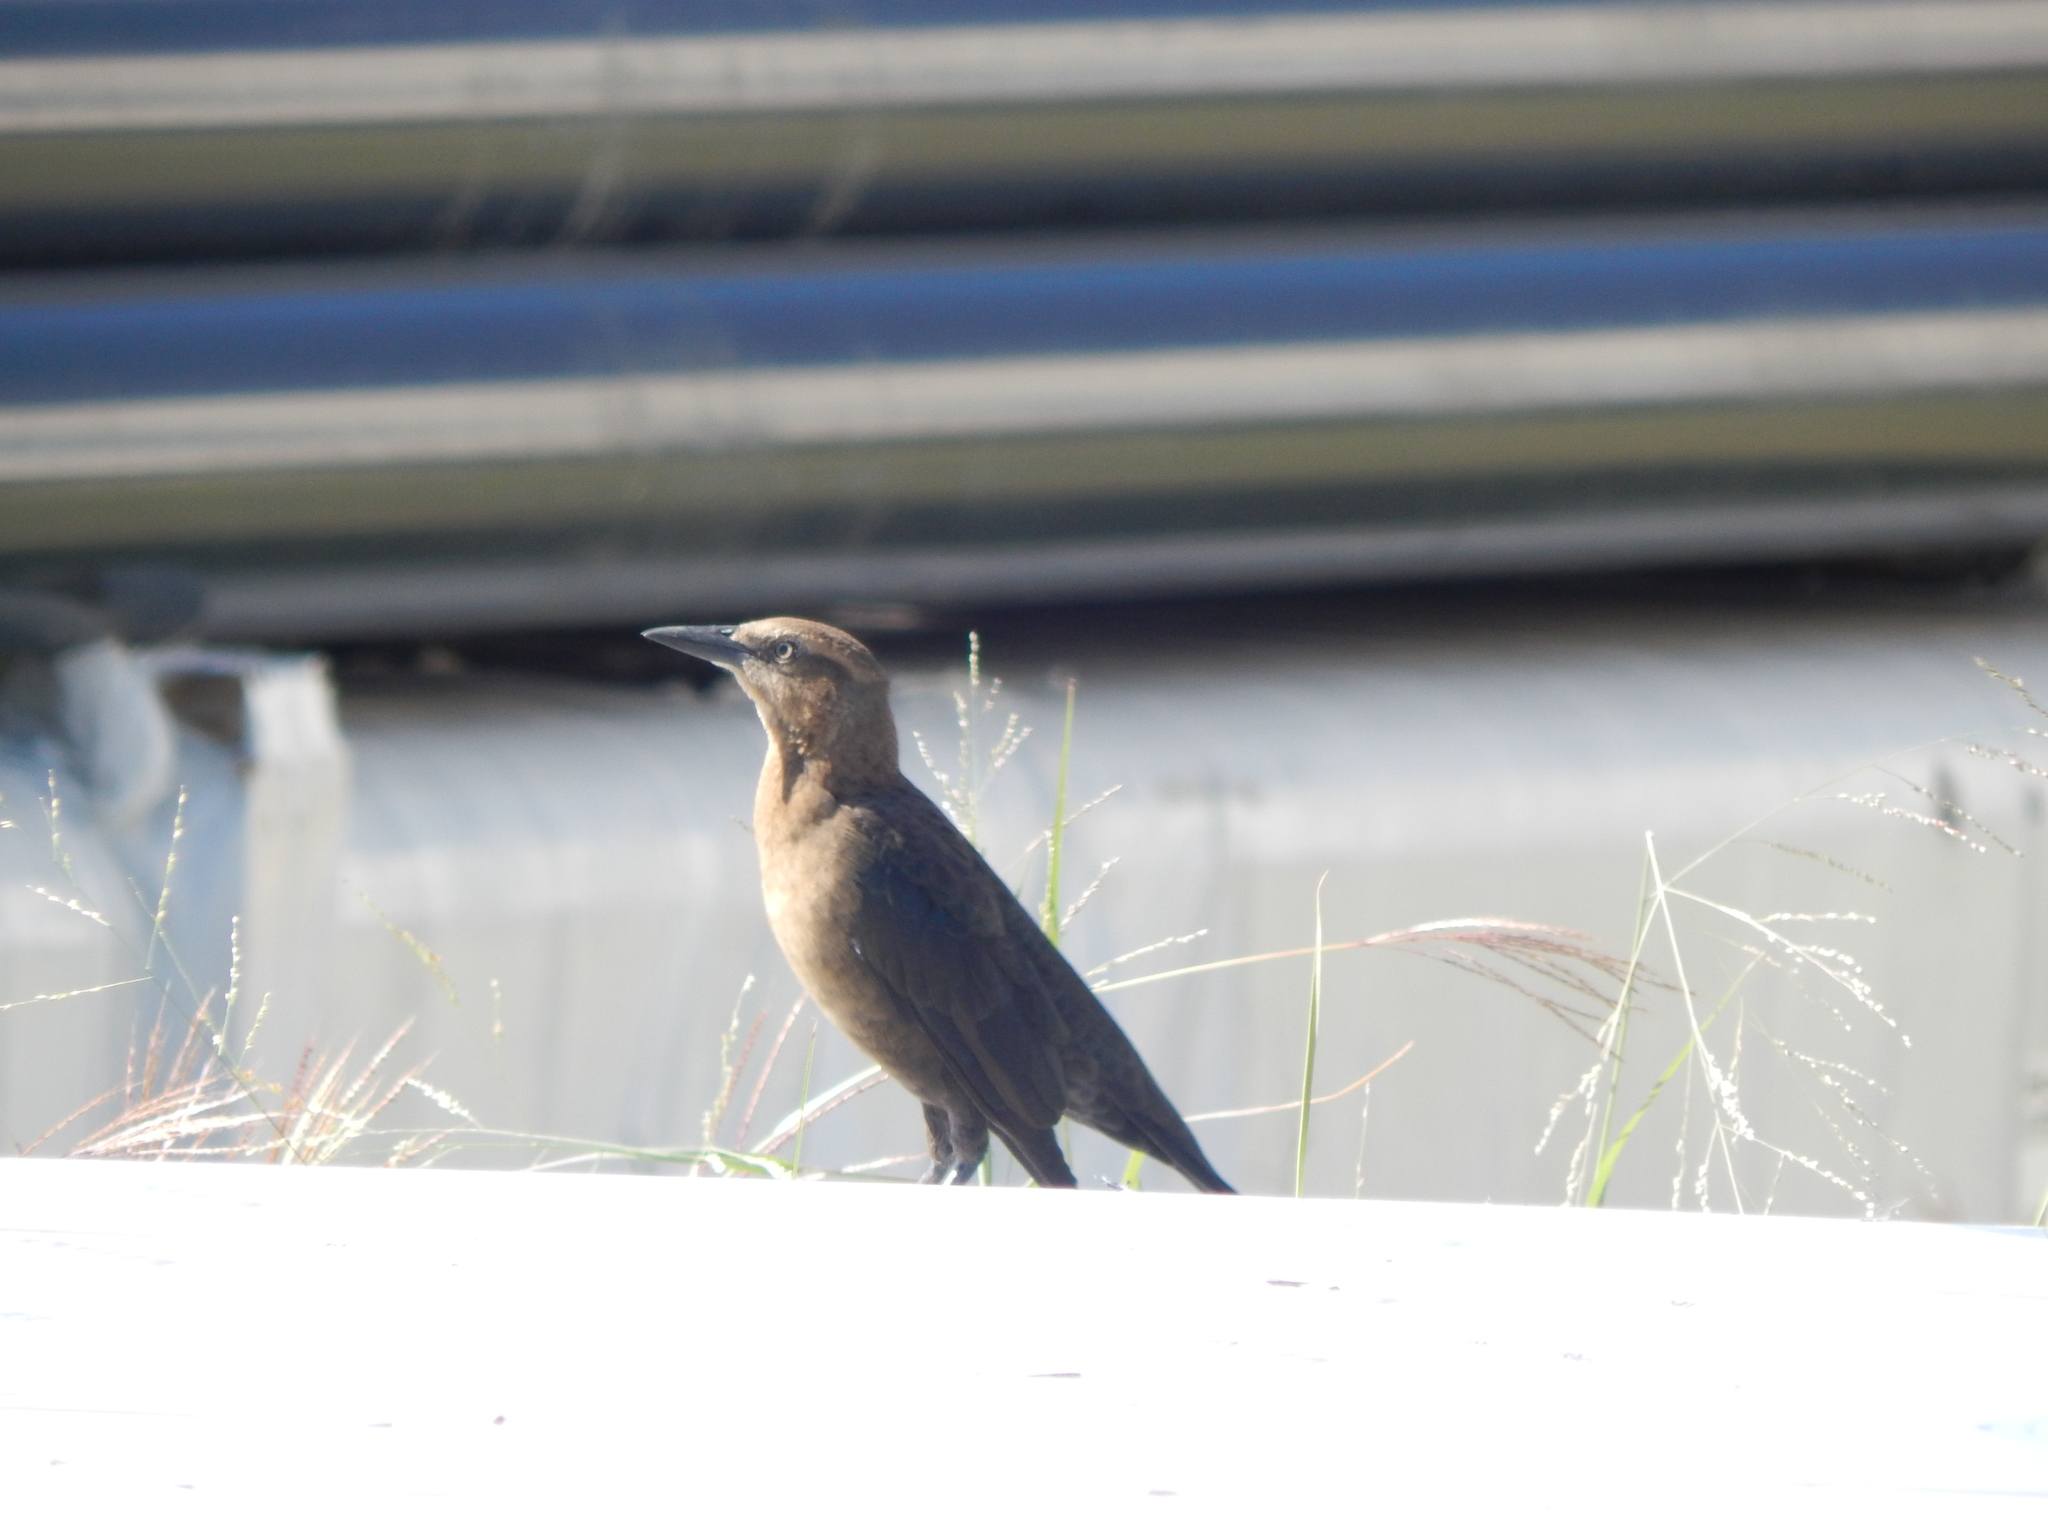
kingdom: Animalia
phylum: Chordata
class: Aves
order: Passeriformes
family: Icteridae
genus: Quiscalus
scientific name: Quiscalus mexicanus
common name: Great-tailed grackle
